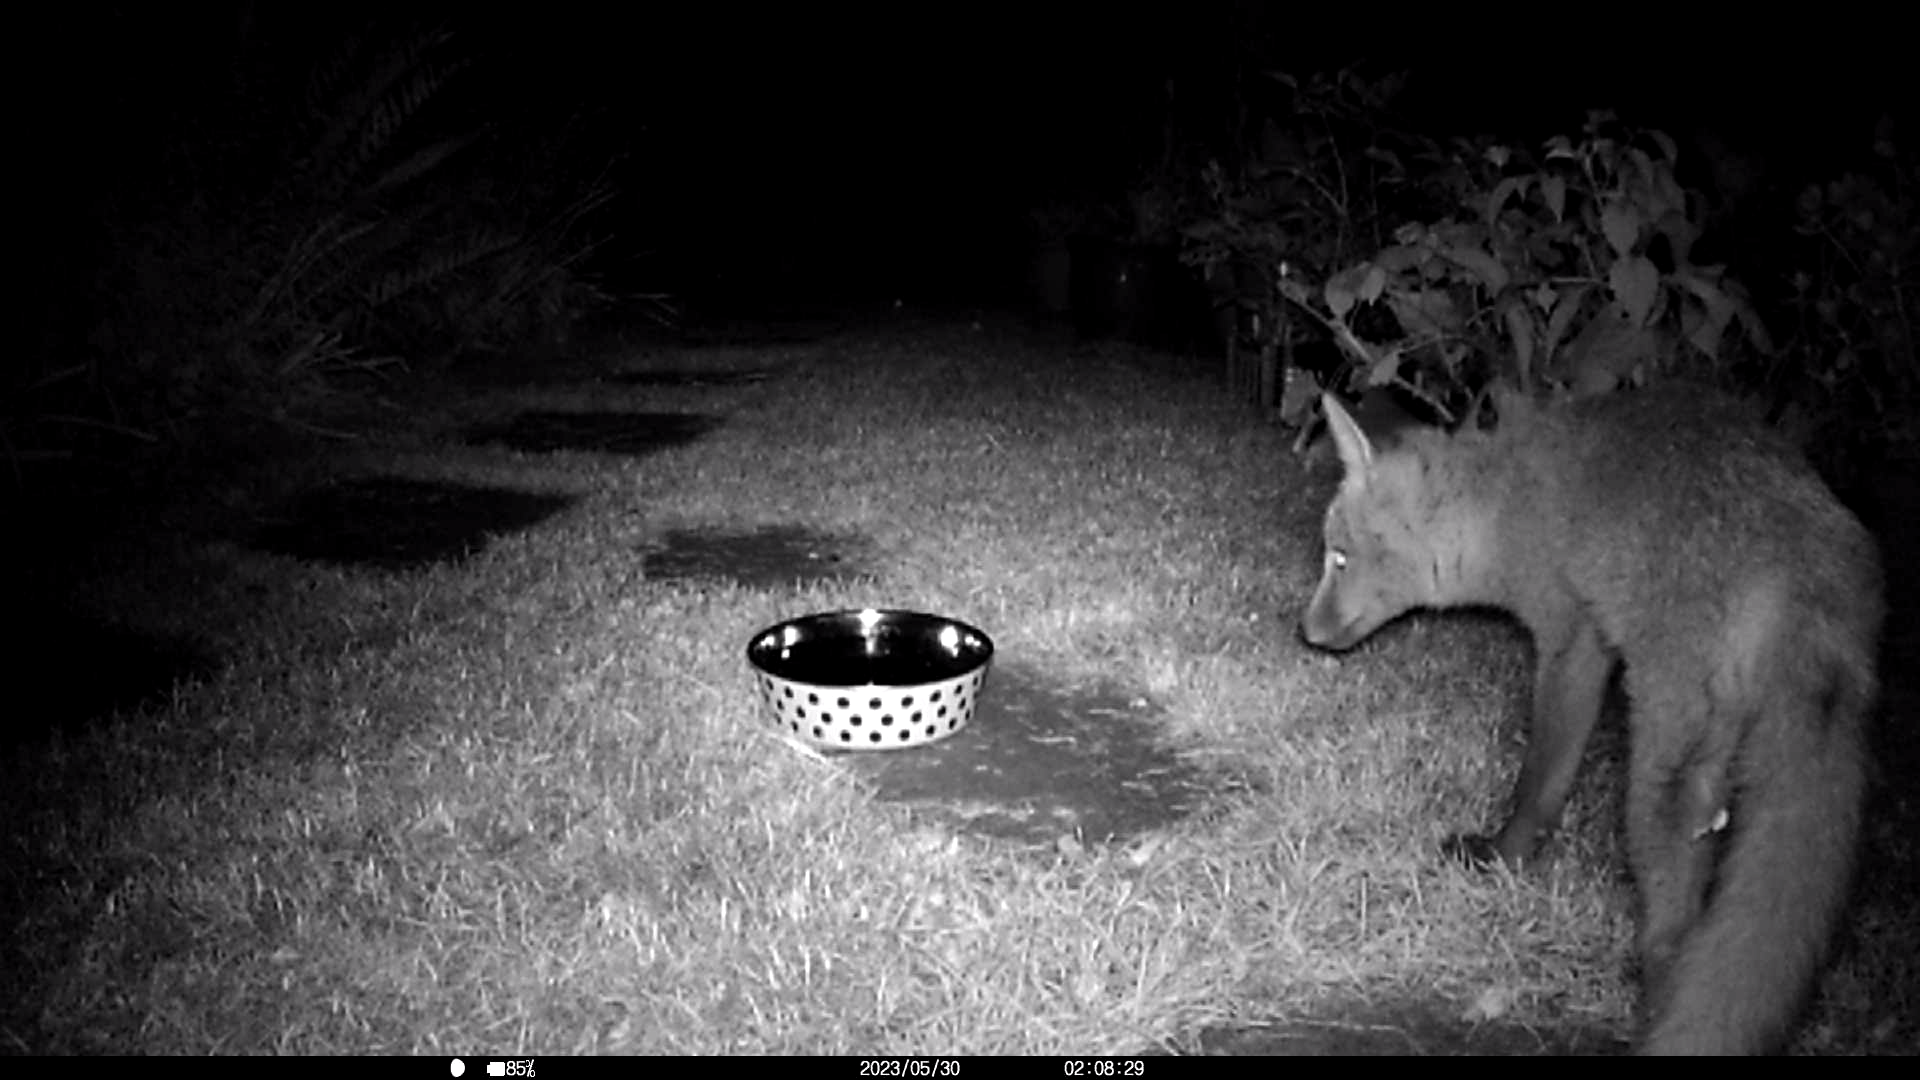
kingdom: Animalia
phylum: Chordata
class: Mammalia
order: Carnivora
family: Canidae
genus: Vulpes
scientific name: Vulpes vulpes
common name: Red fox
